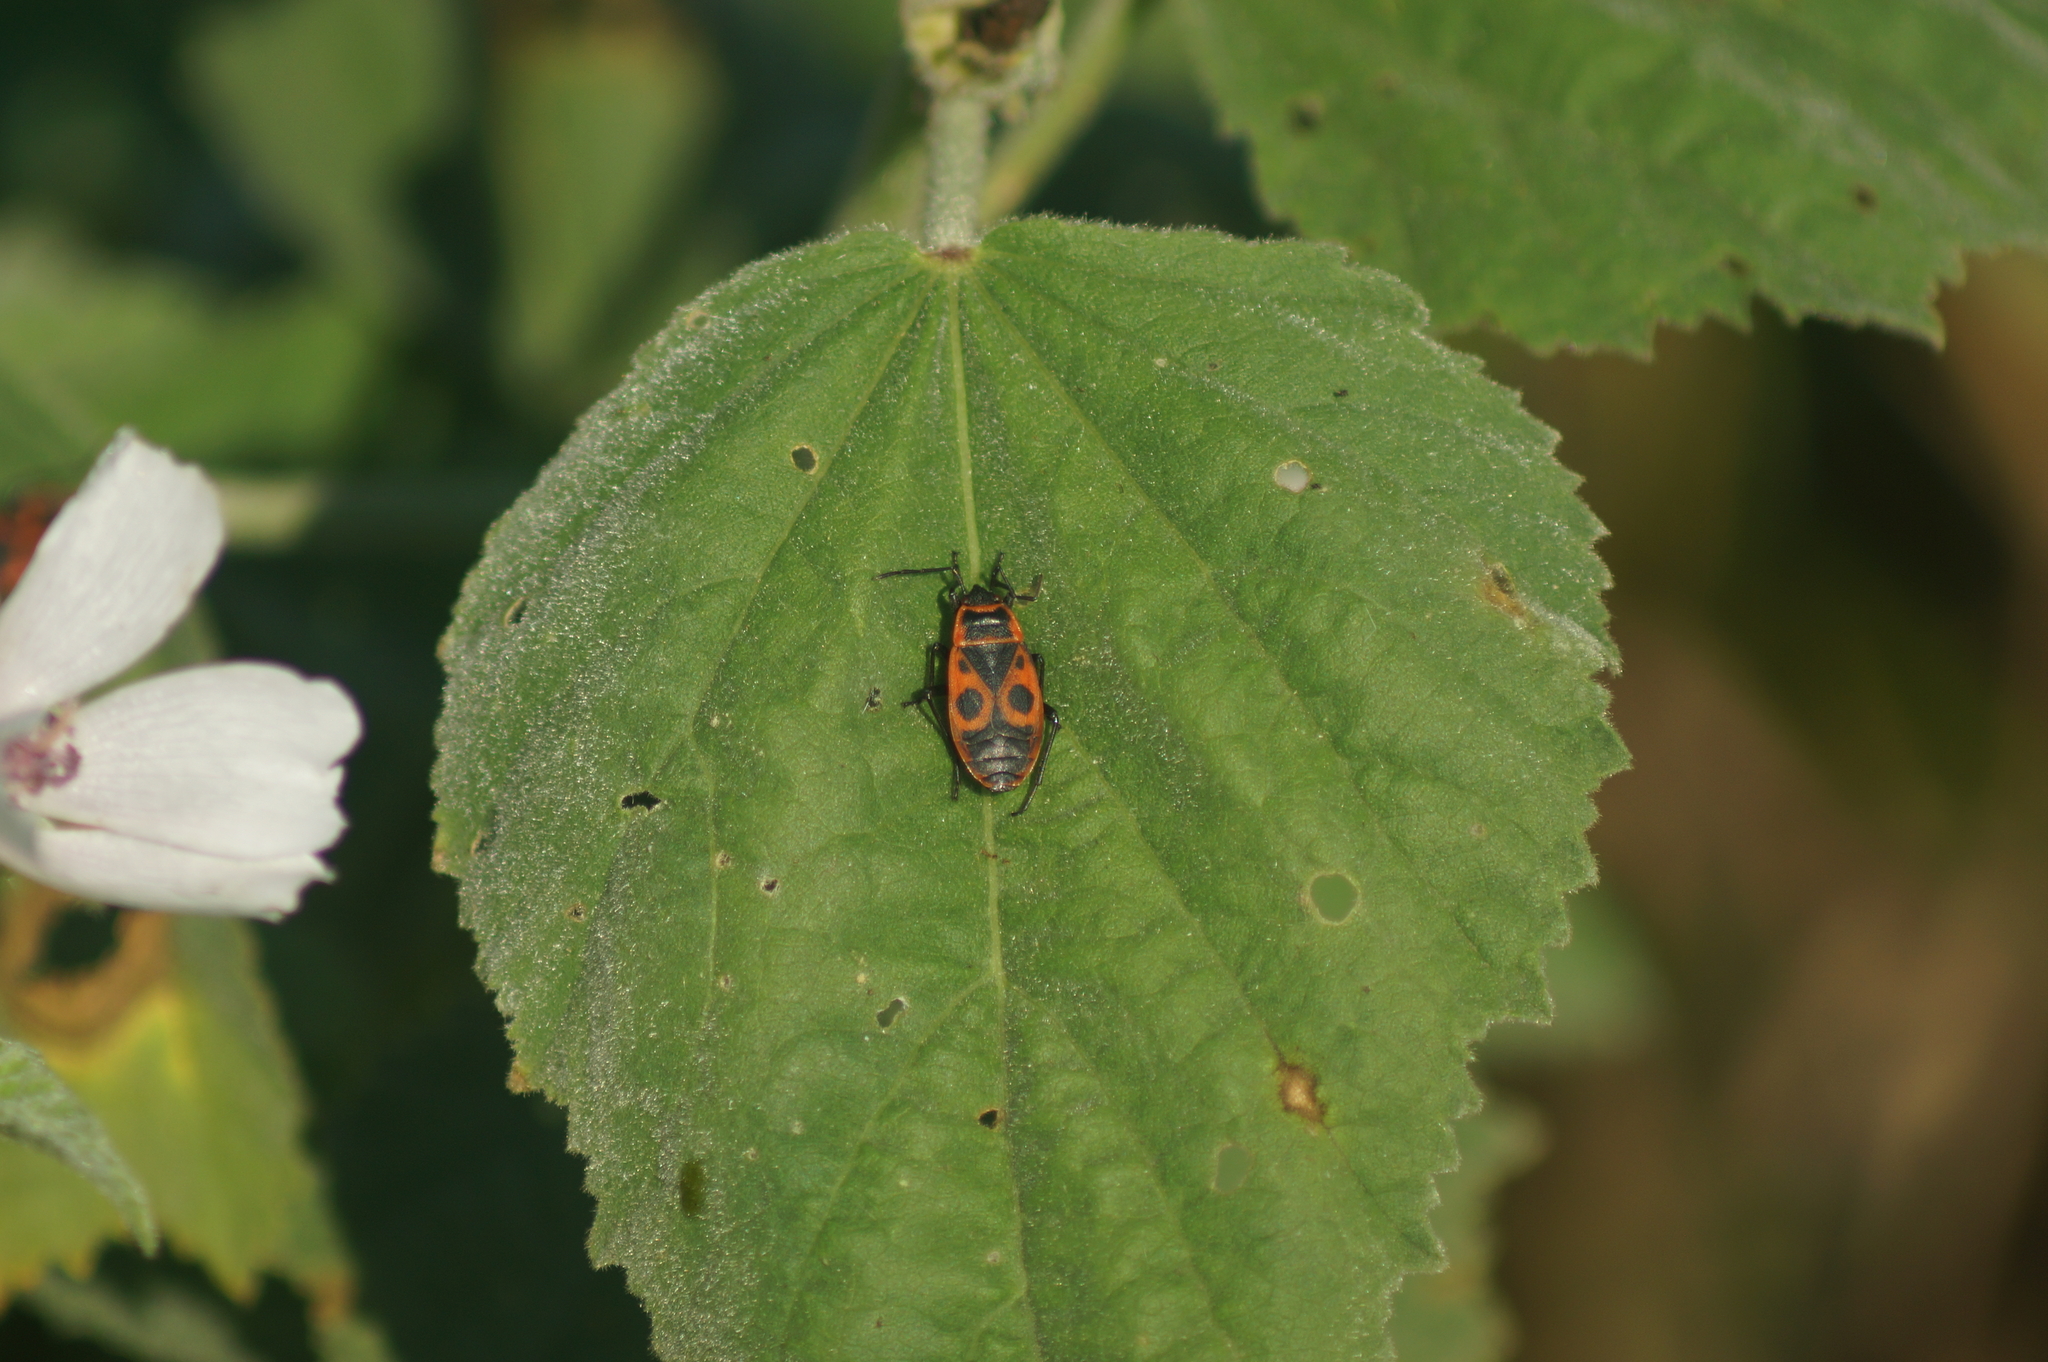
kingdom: Animalia
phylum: Arthropoda
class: Insecta
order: Hemiptera
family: Pyrrhocoridae
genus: Pyrrhocoris
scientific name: Pyrrhocoris apterus
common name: Firebug
